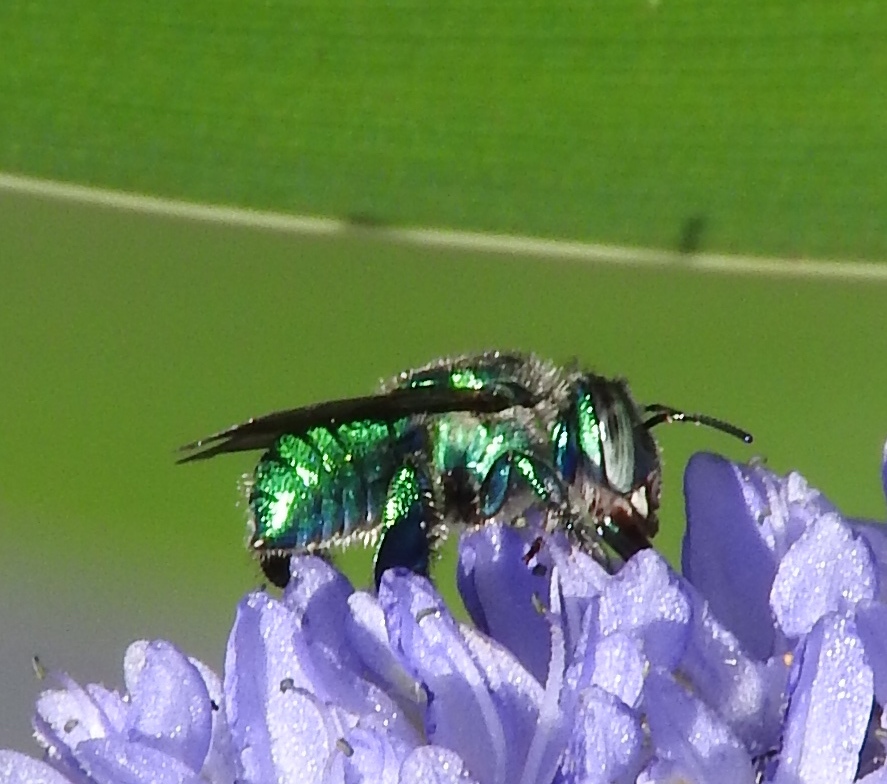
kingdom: Animalia
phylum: Arthropoda
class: Insecta
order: Hymenoptera
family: Apidae
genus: Euglossa
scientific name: Euglossa
